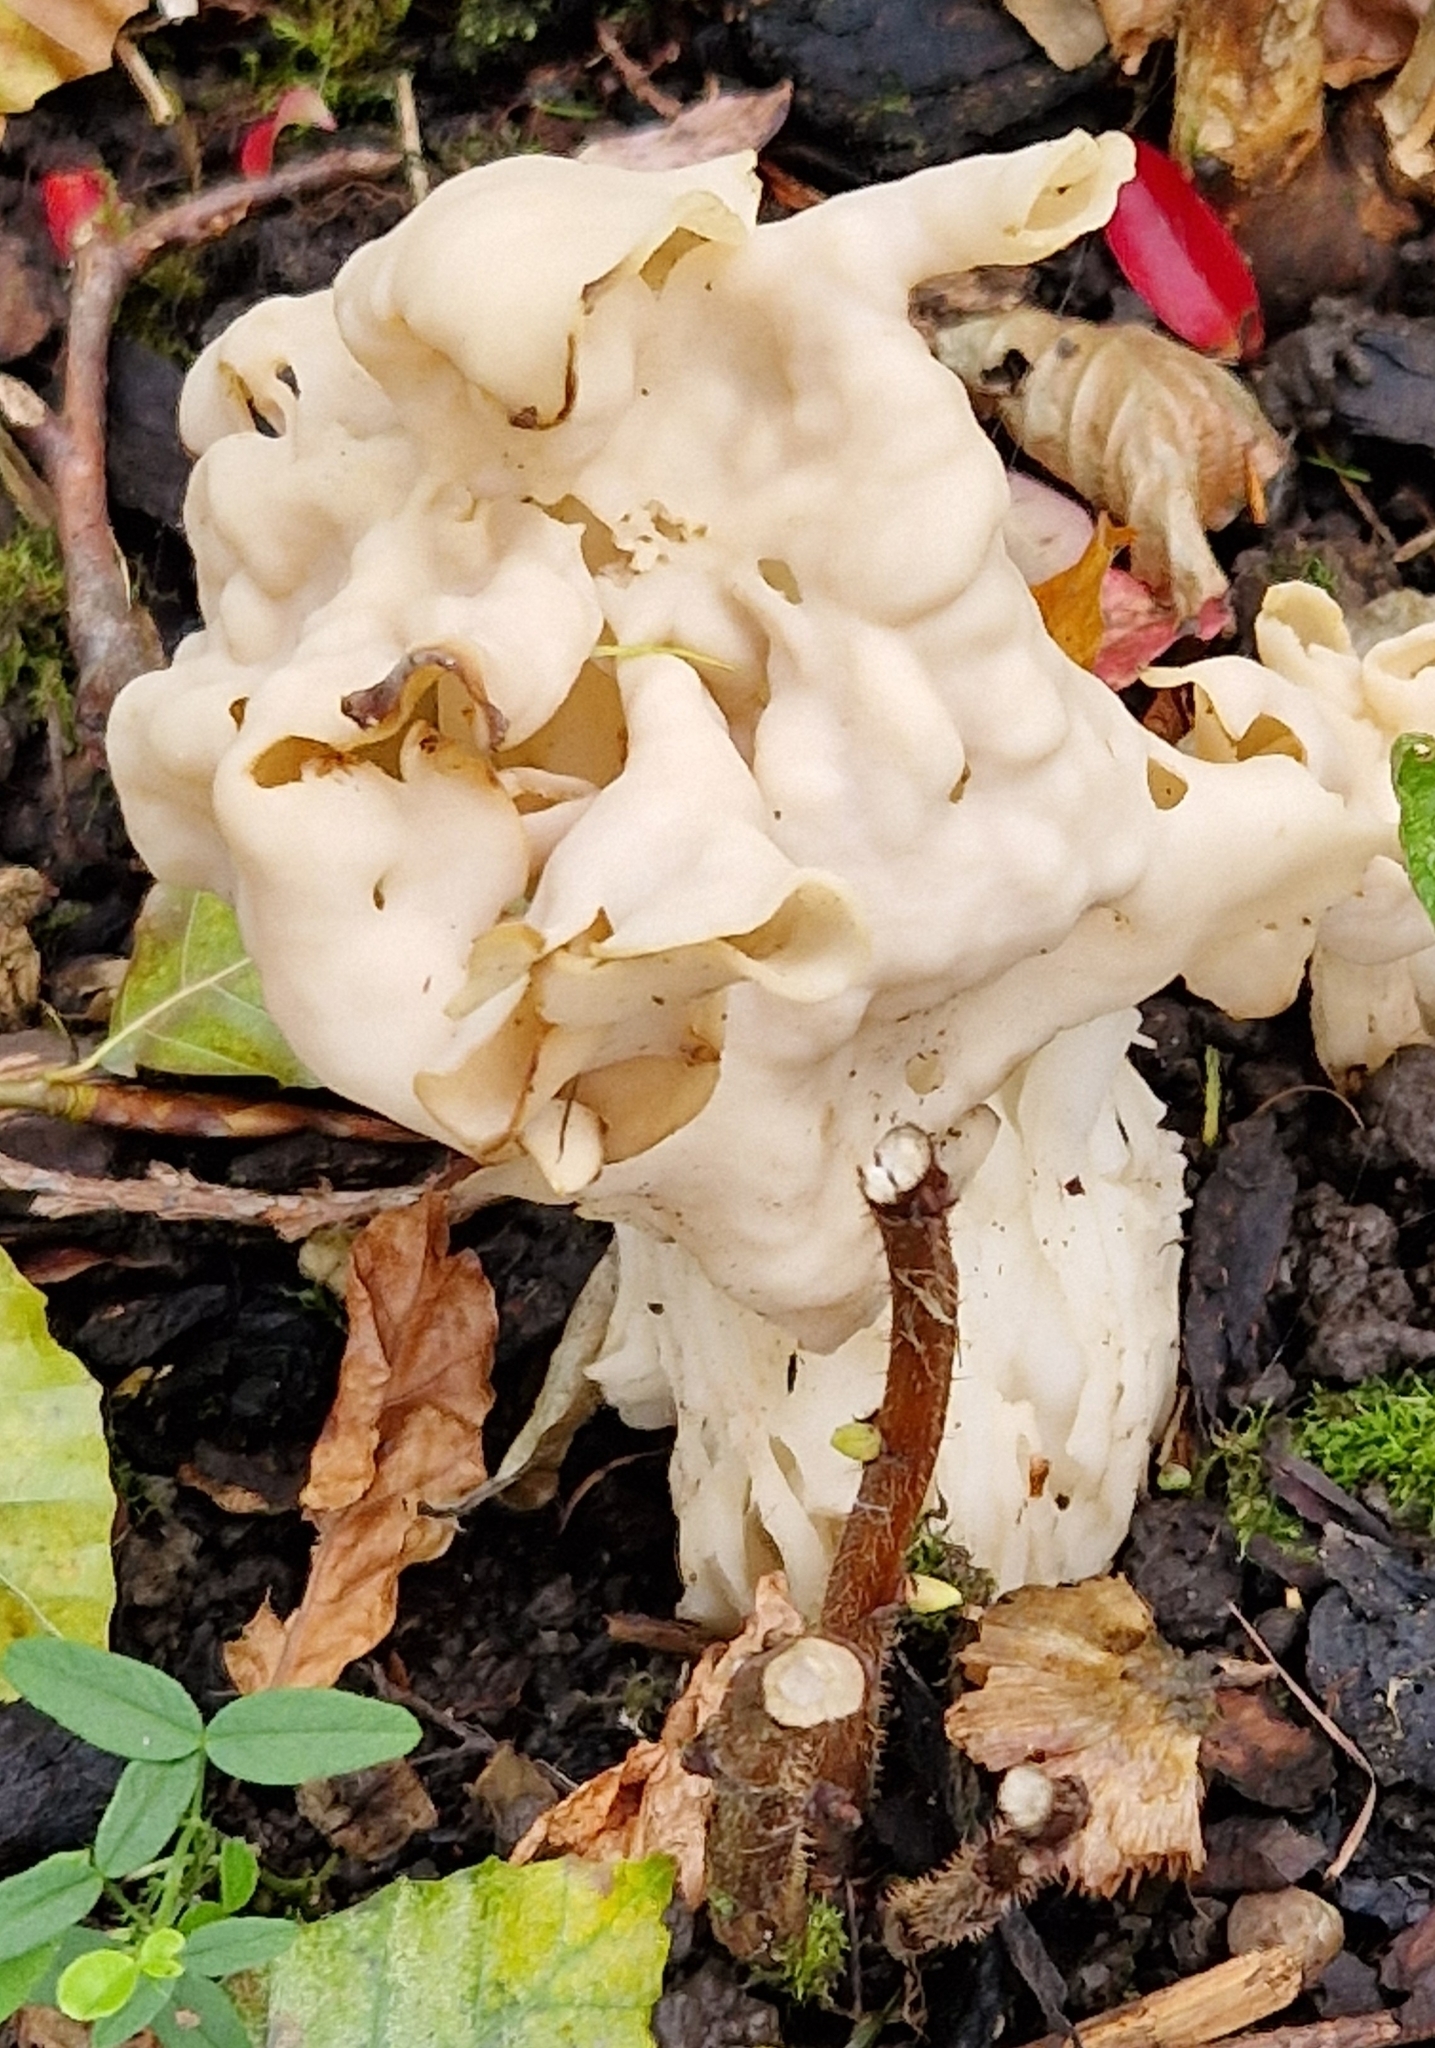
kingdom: Fungi
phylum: Ascomycota
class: Pezizomycetes
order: Pezizales
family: Helvellaceae
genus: Helvella
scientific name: Helvella crispa
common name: White saddle
